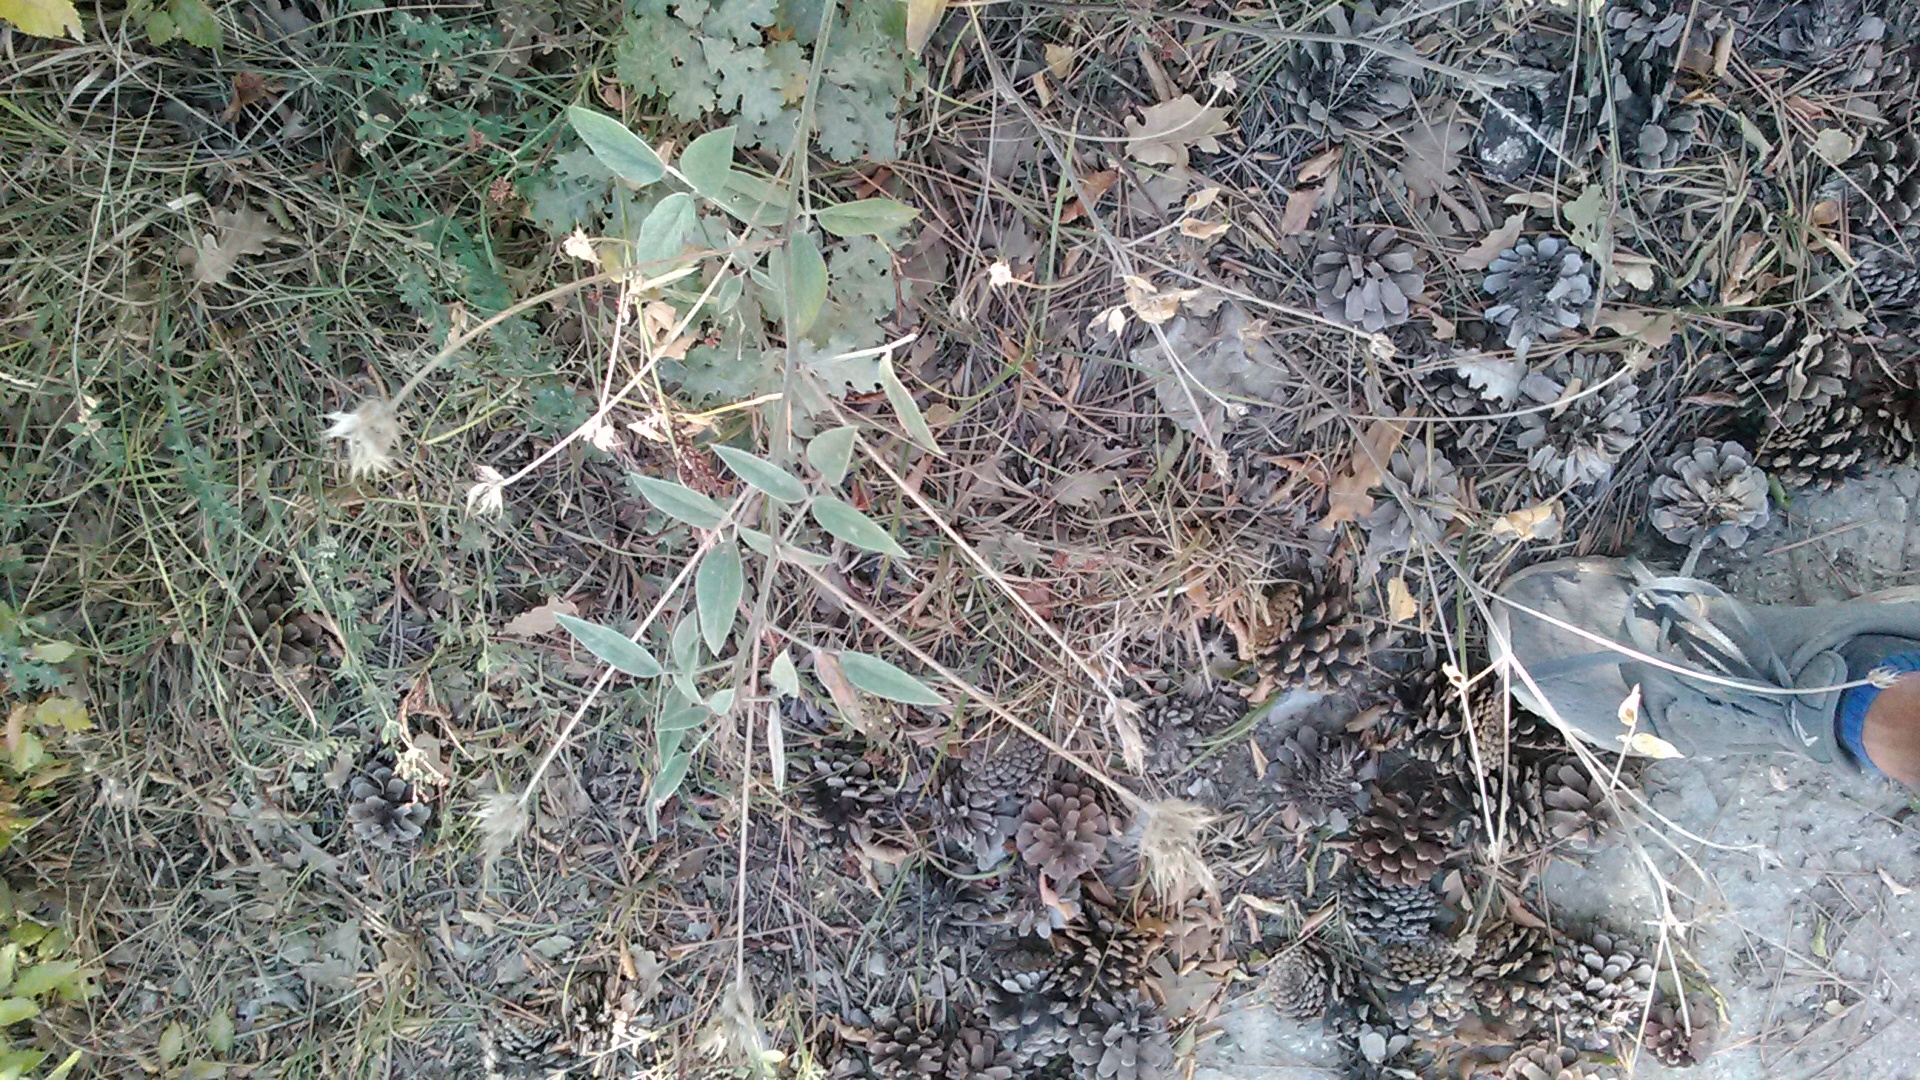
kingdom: Plantae
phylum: Tracheophyta
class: Magnoliopsida
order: Fabales
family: Fabaceae
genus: Bituminaria
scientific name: Bituminaria bituminosa
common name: Arabian pea
